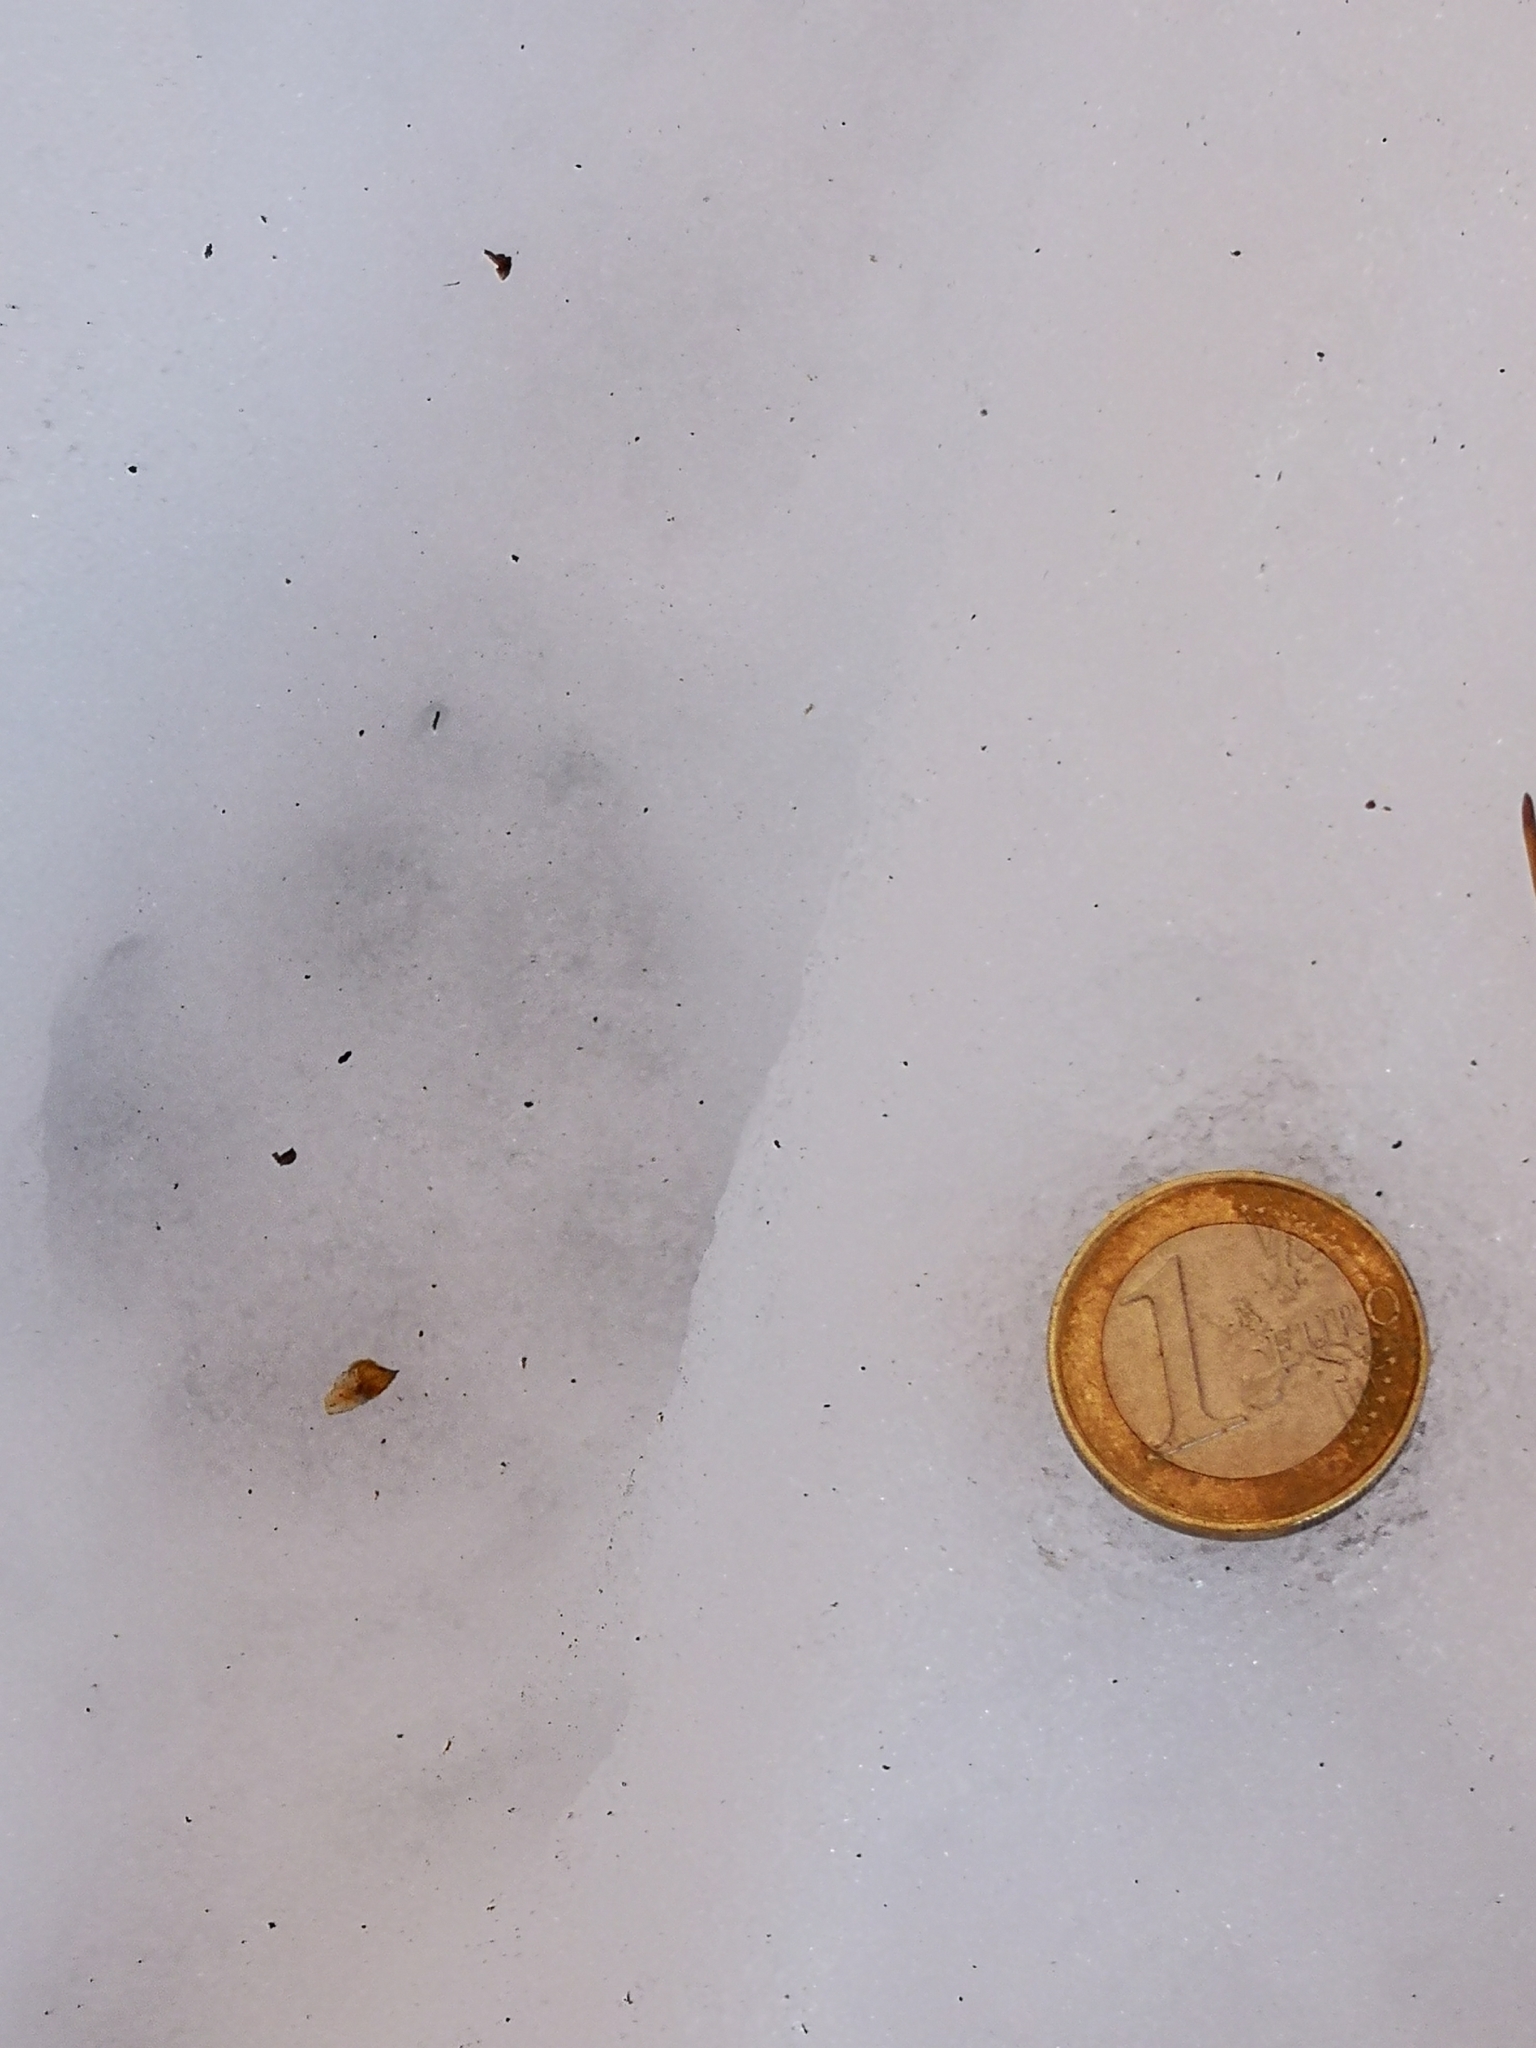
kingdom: Animalia
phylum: Chordata
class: Mammalia
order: Carnivora
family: Canidae
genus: Vulpes
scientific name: Vulpes vulpes
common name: Red fox
